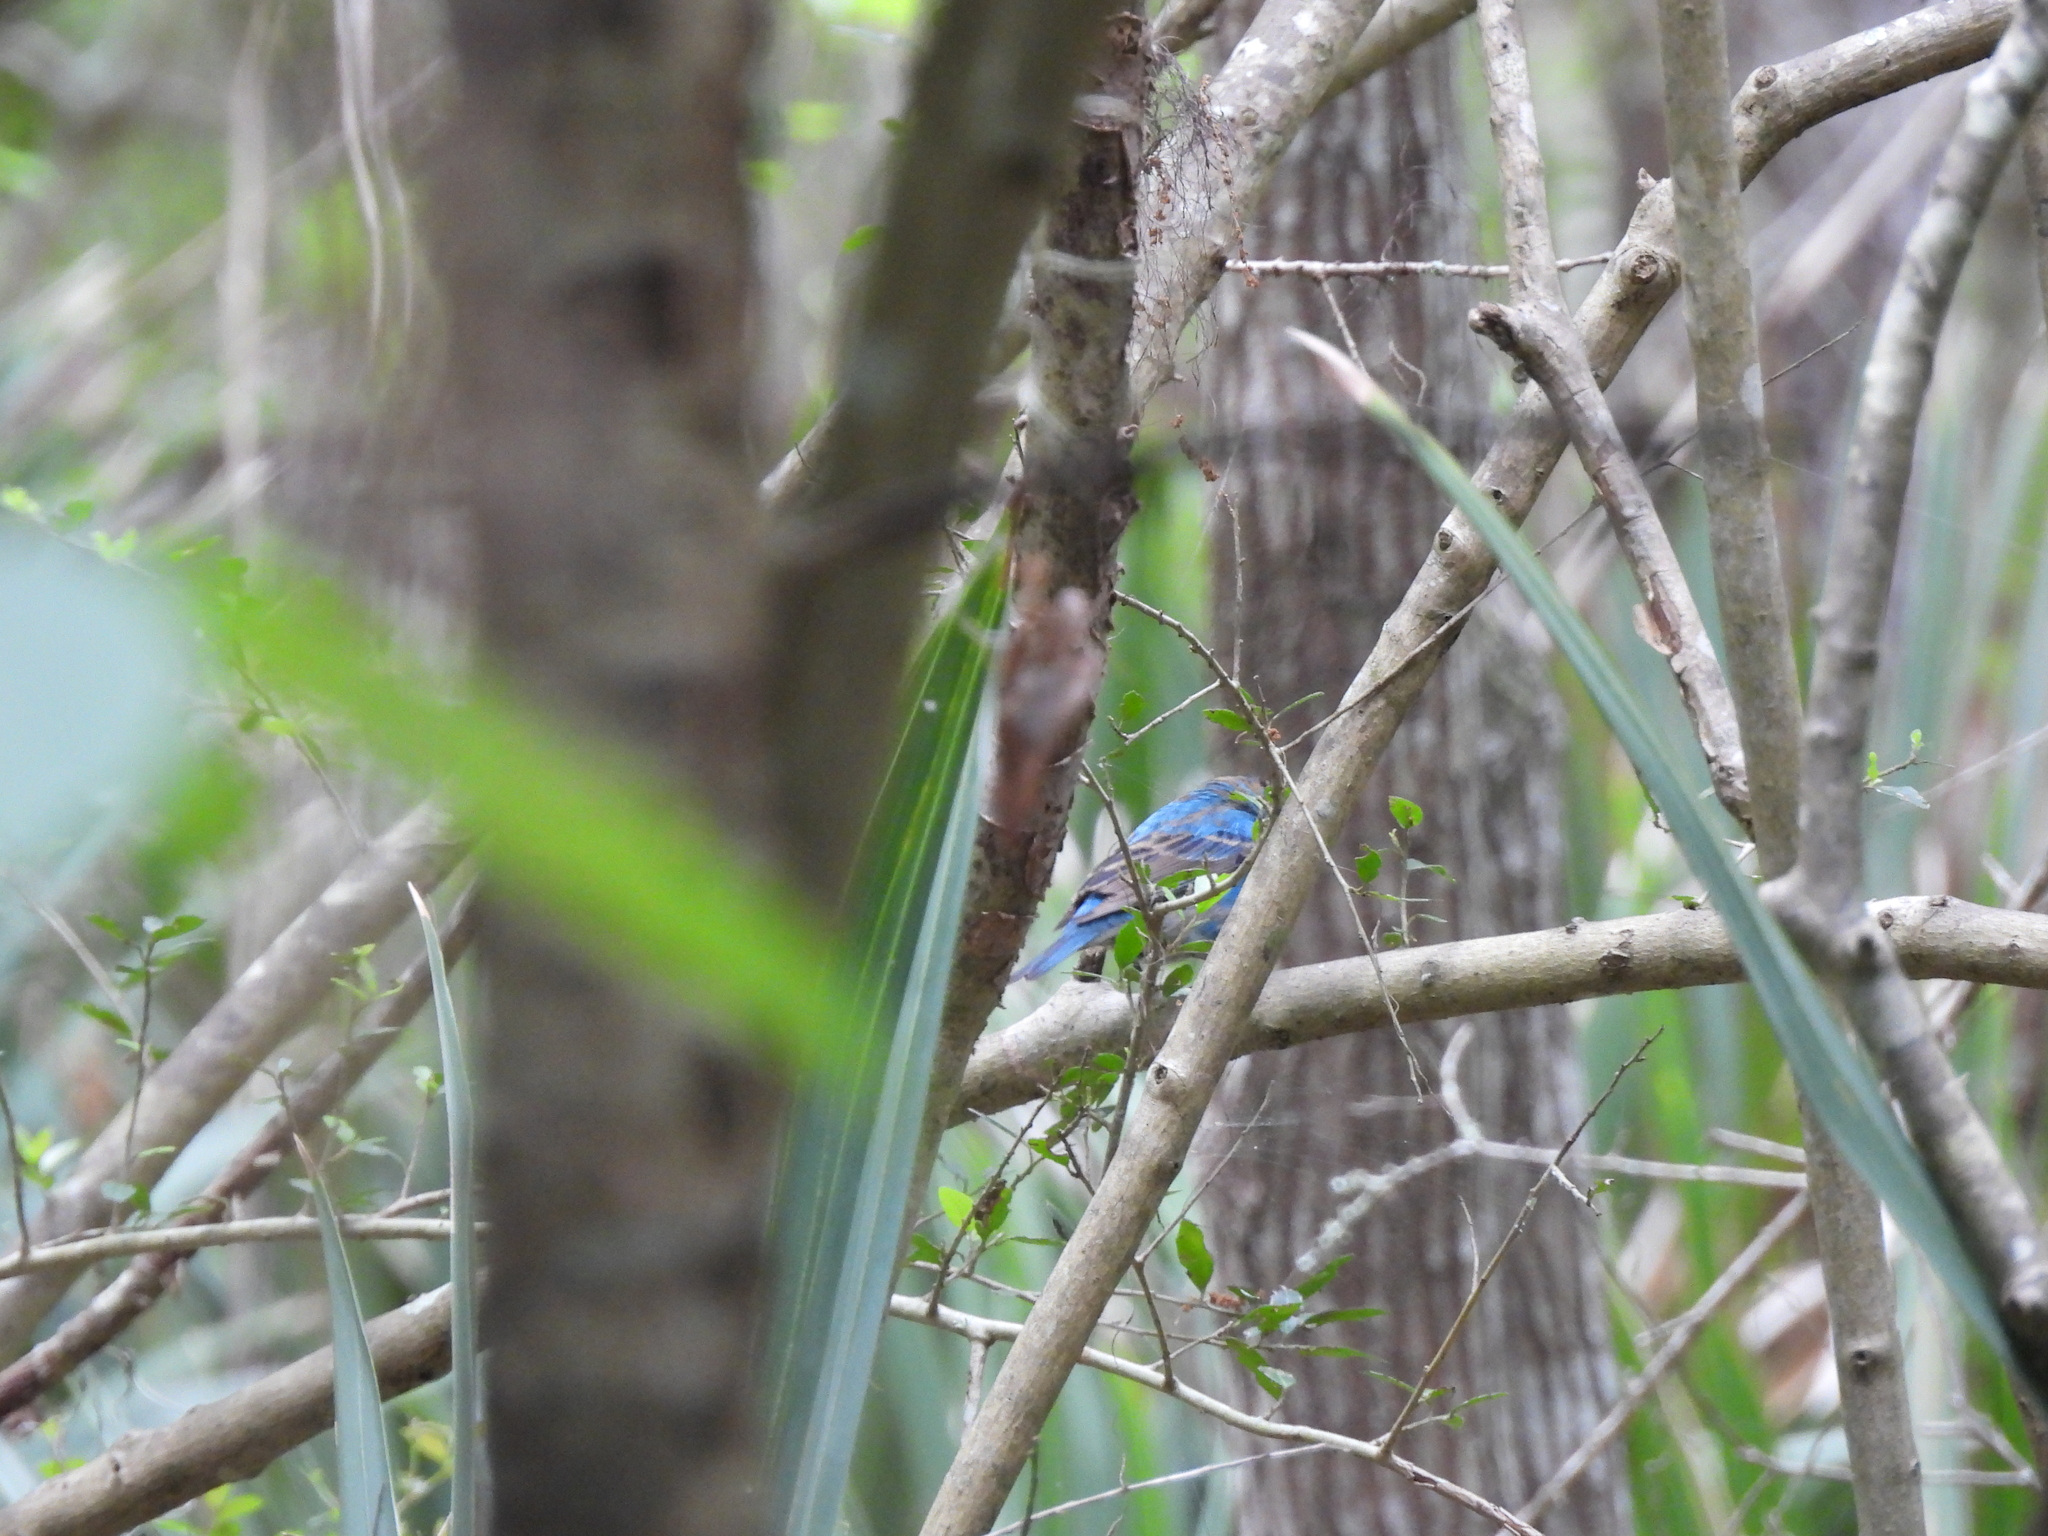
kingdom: Animalia
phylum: Chordata
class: Aves
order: Passeriformes
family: Cardinalidae
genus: Passerina
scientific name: Passerina cyanea
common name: Indigo bunting
